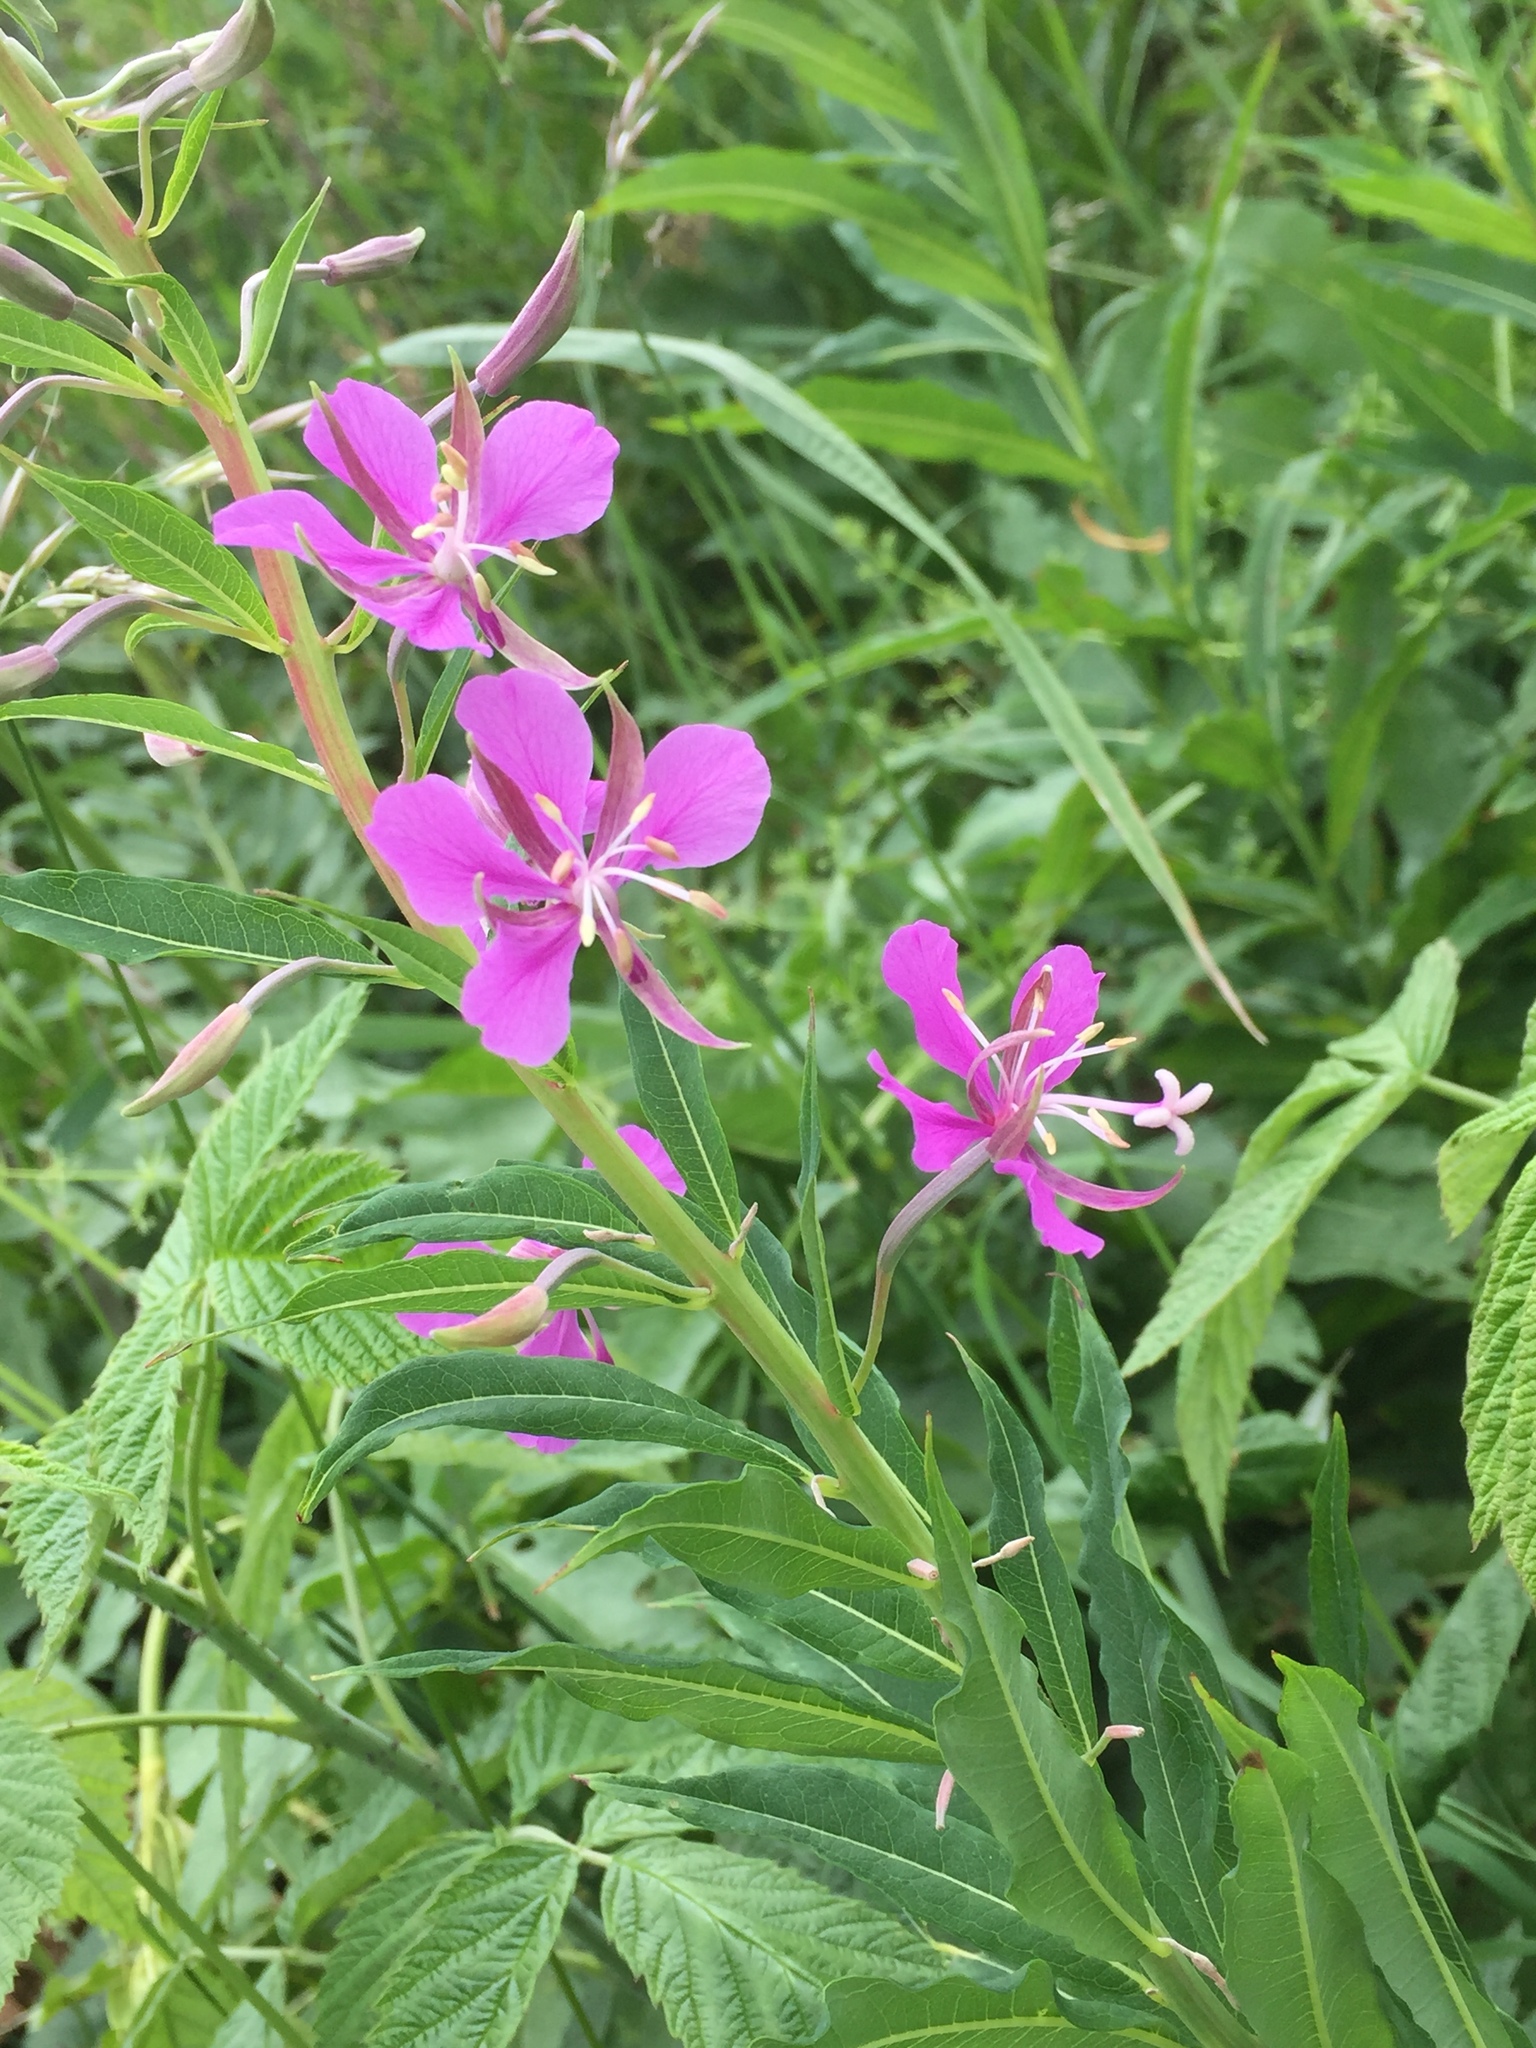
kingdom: Plantae
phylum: Tracheophyta
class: Magnoliopsida
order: Myrtales
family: Onagraceae
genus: Chamaenerion
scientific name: Chamaenerion angustifolium
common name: Fireweed
